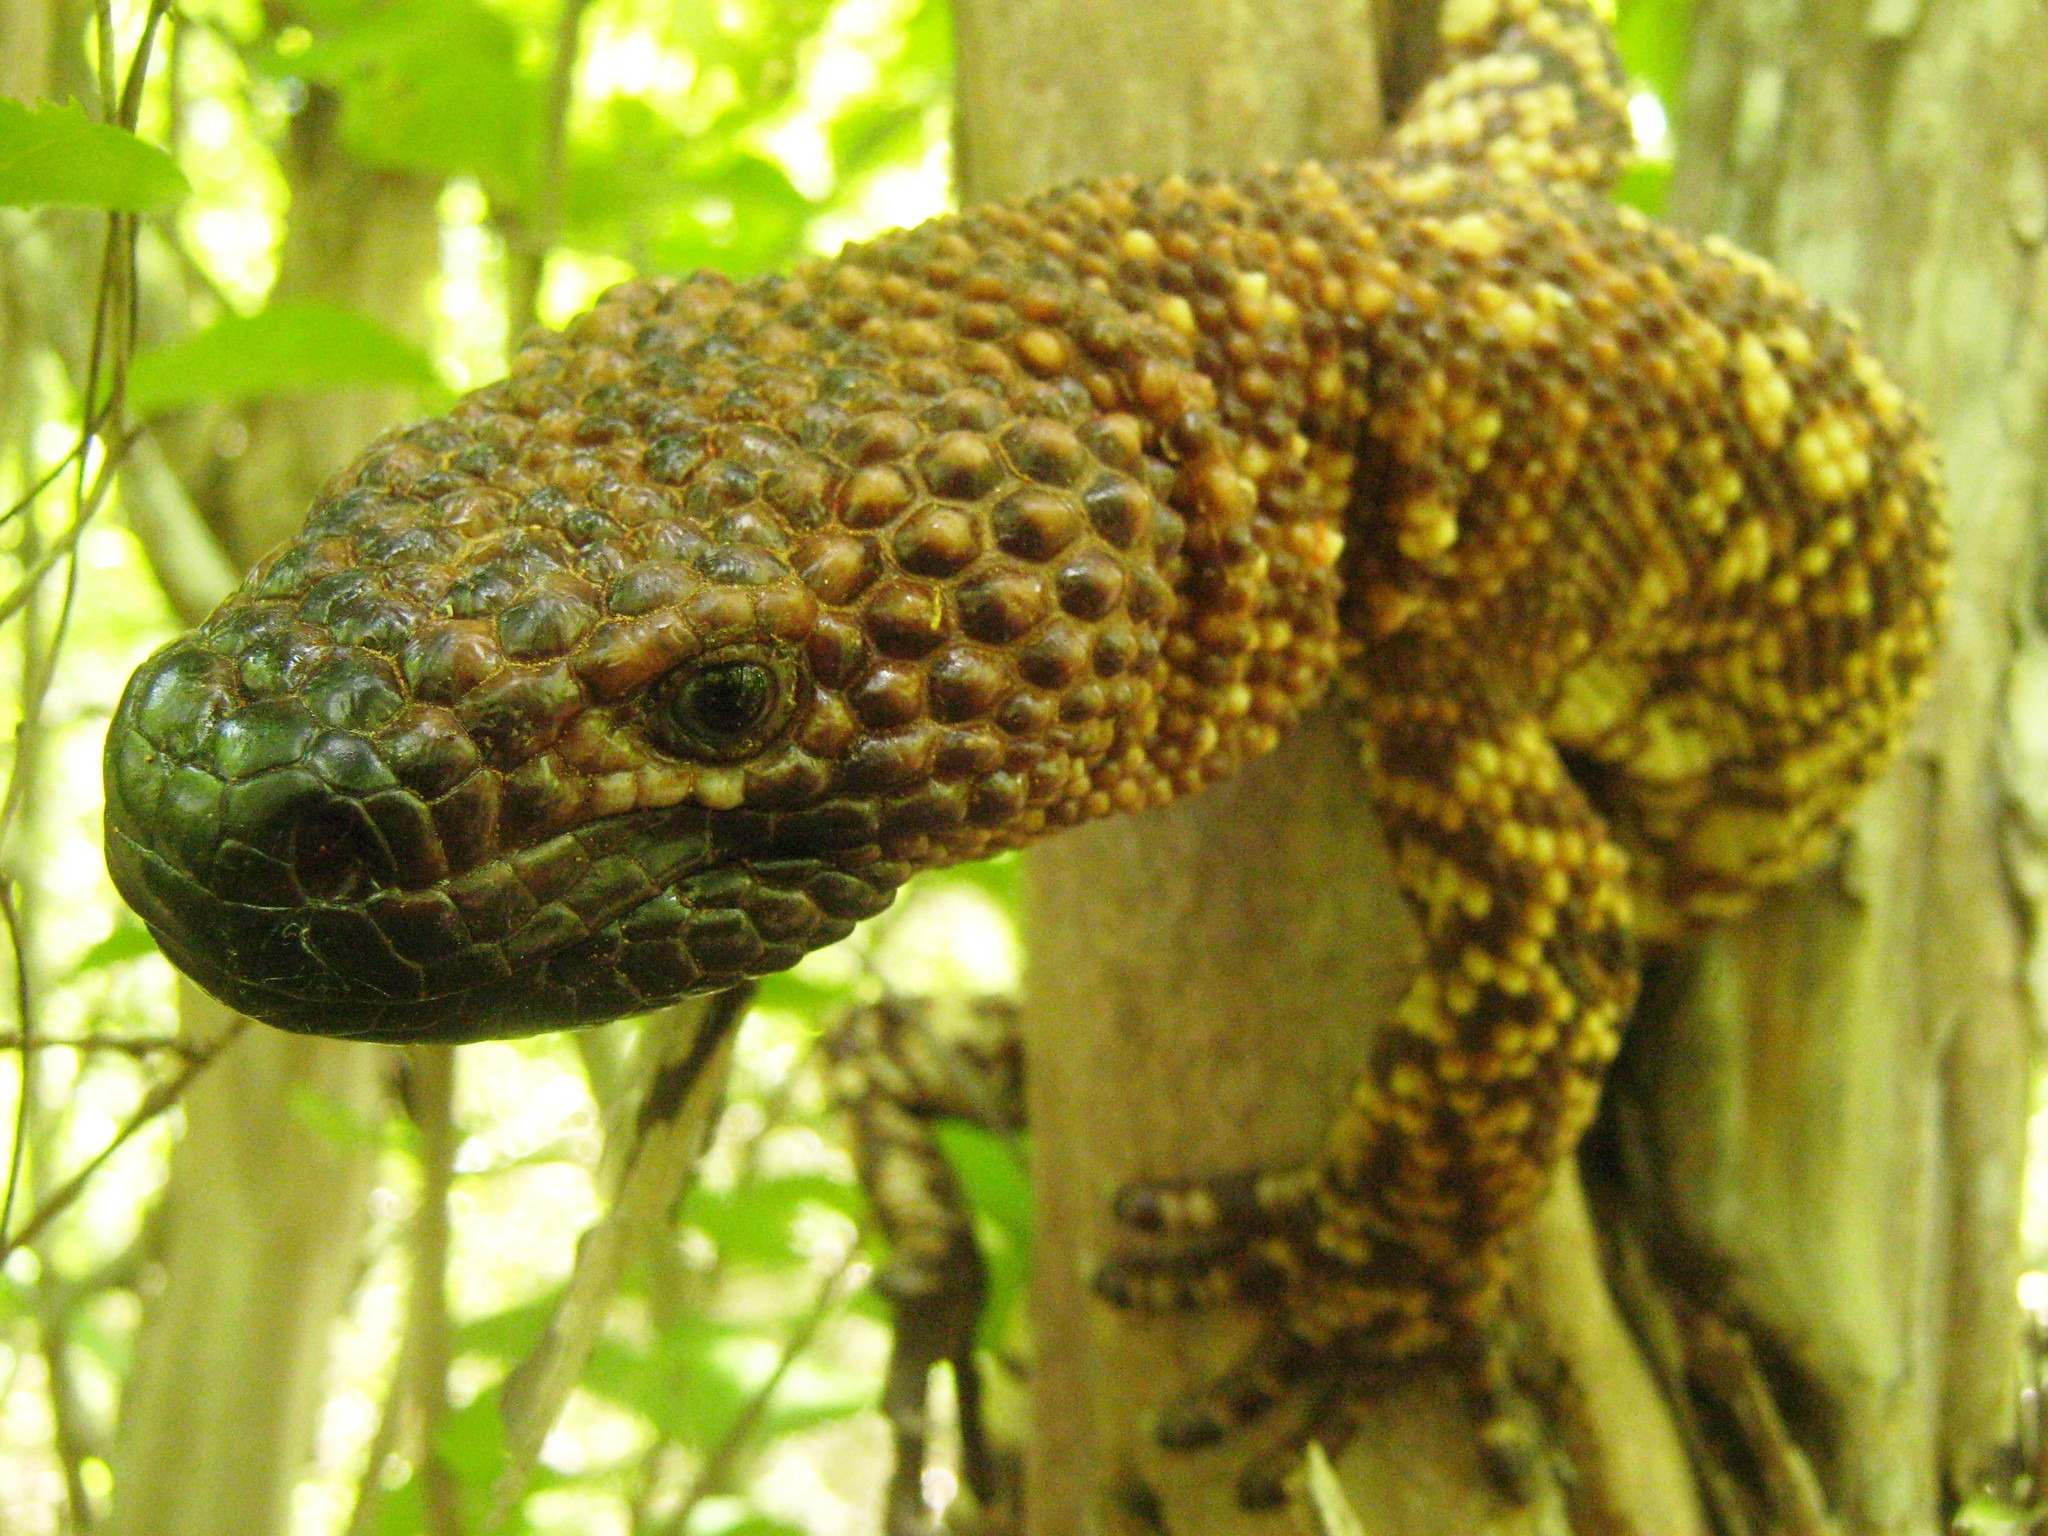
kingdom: Animalia
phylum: Chordata
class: Squamata
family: Helodermatidae
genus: Heloderma
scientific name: Heloderma horridum
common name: Mexican beaded lizard
